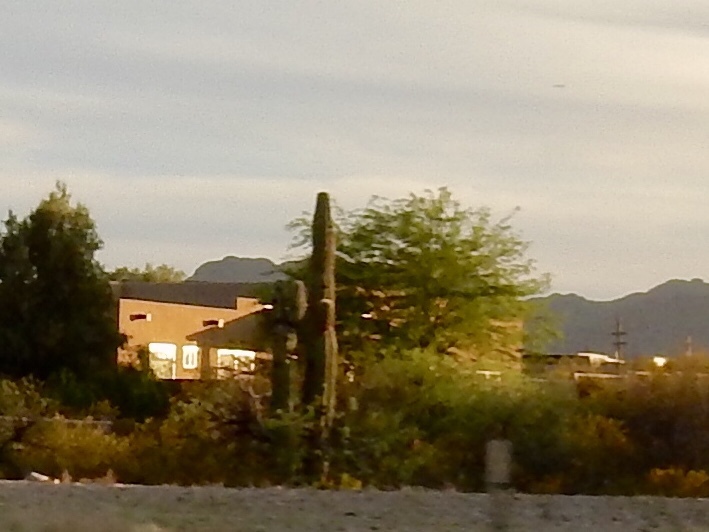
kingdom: Plantae
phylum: Tracheophyta
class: Magnoliopsida
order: Caryophyllales
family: Cactaceae
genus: Carnegiea
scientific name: Carnegiea gigantea
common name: Saguaro
